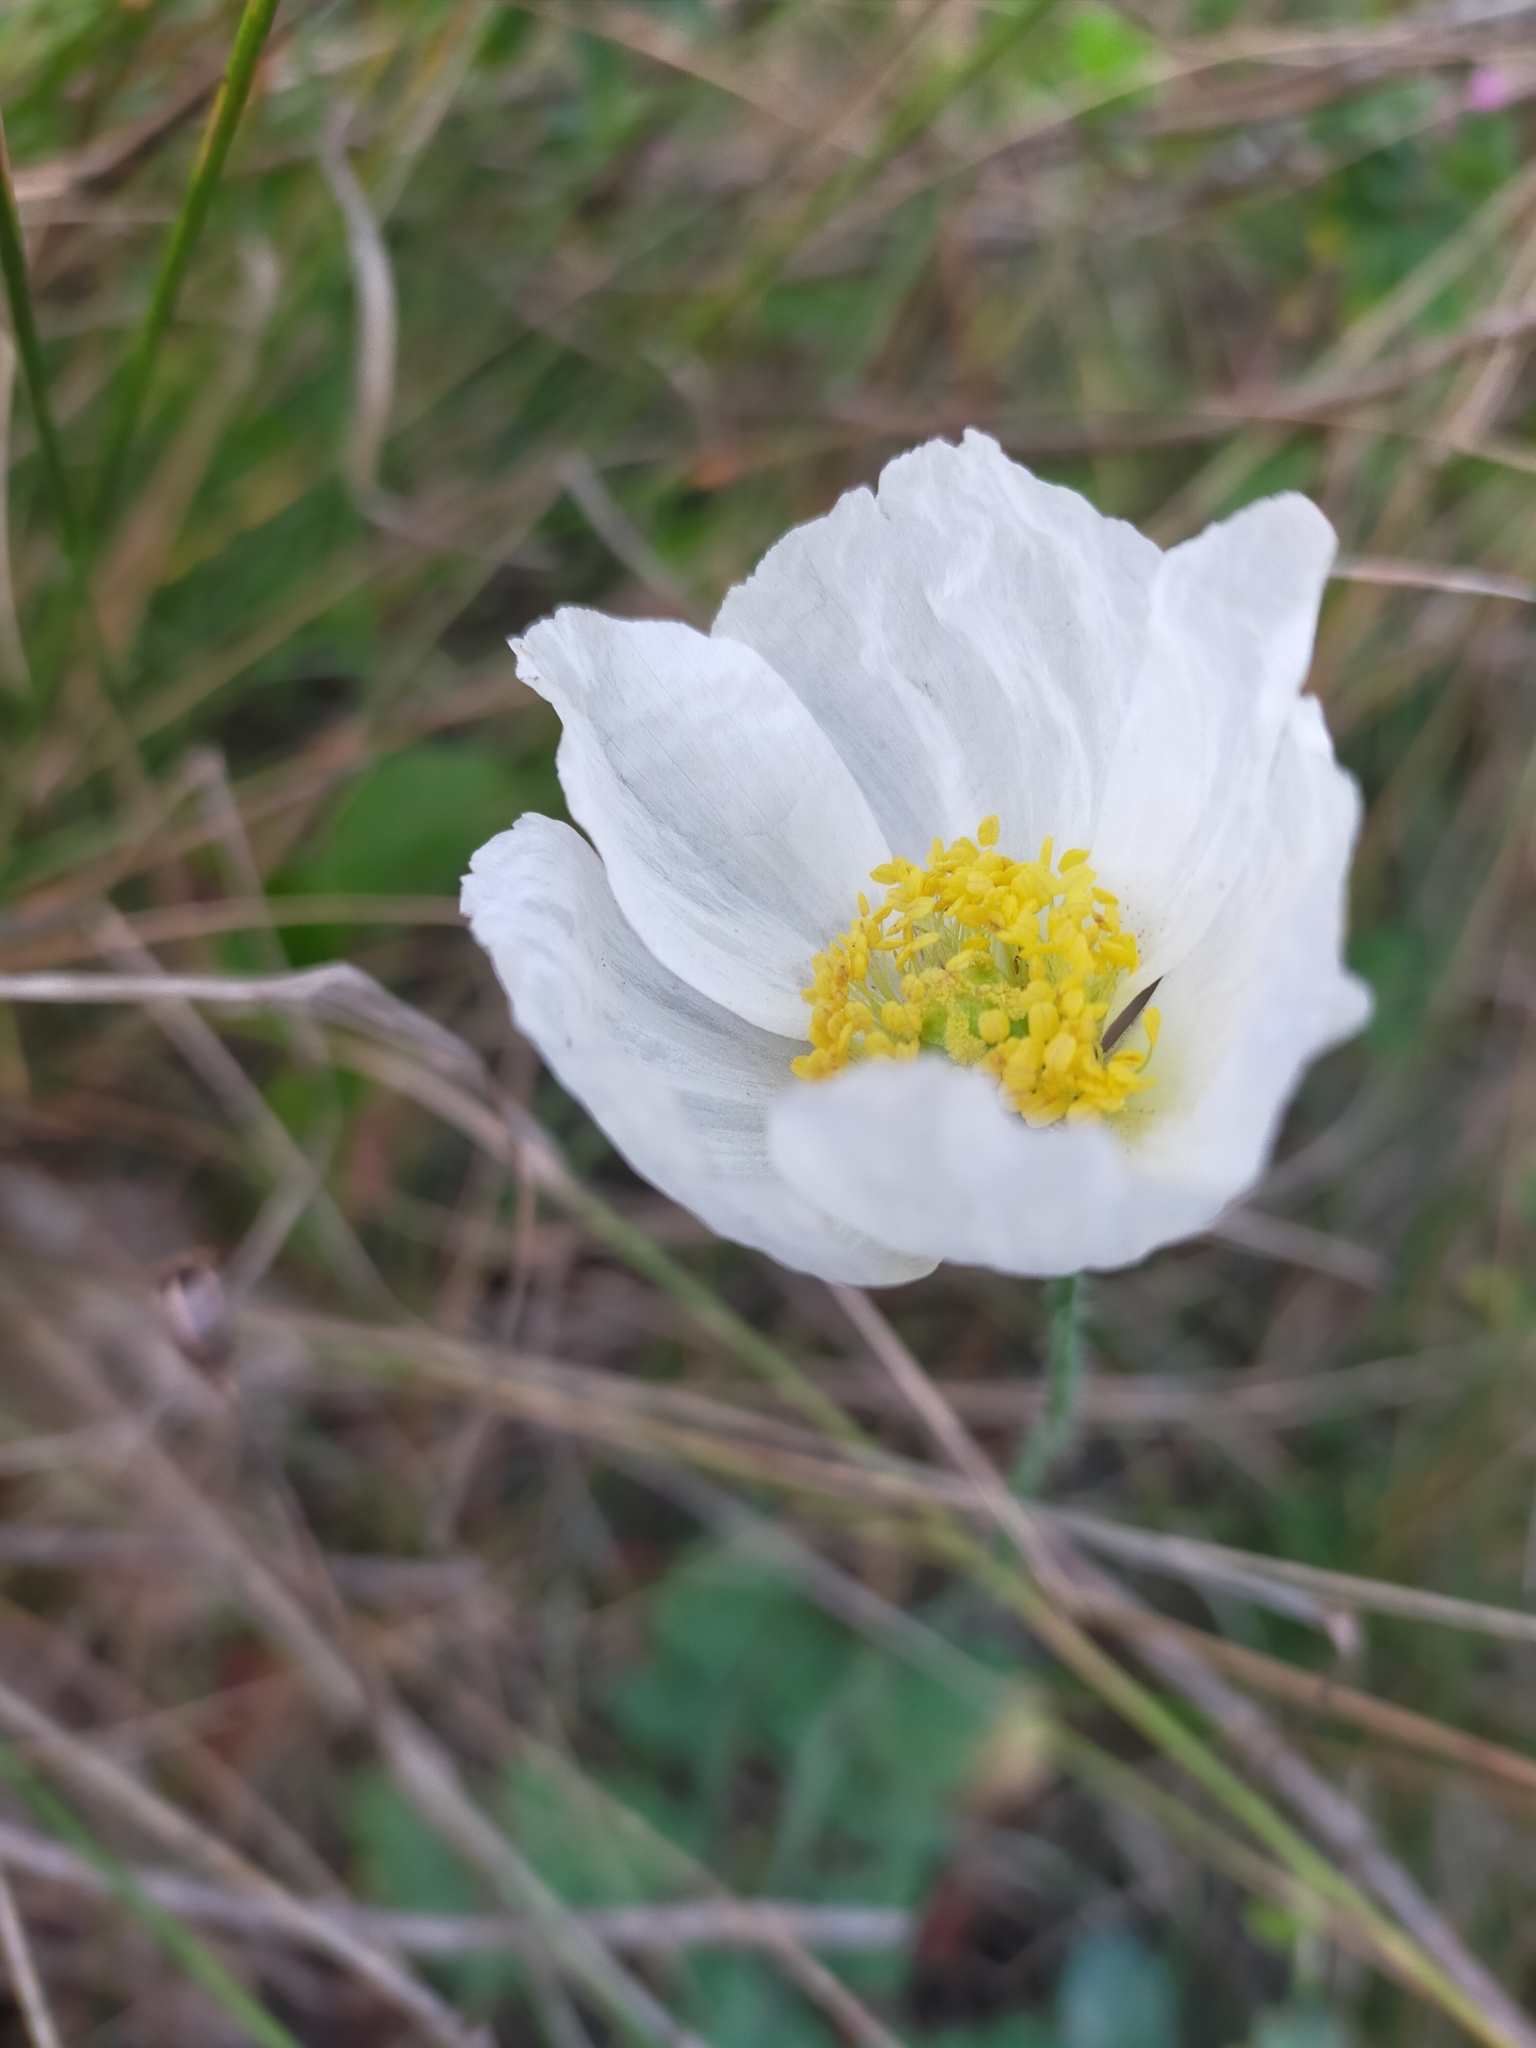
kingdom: Plantae
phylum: Tracheophyta
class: Magnoliopsida
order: Ranunculales
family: Papaveraceae
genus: Papaver
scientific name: Papaver sokolovskajae
